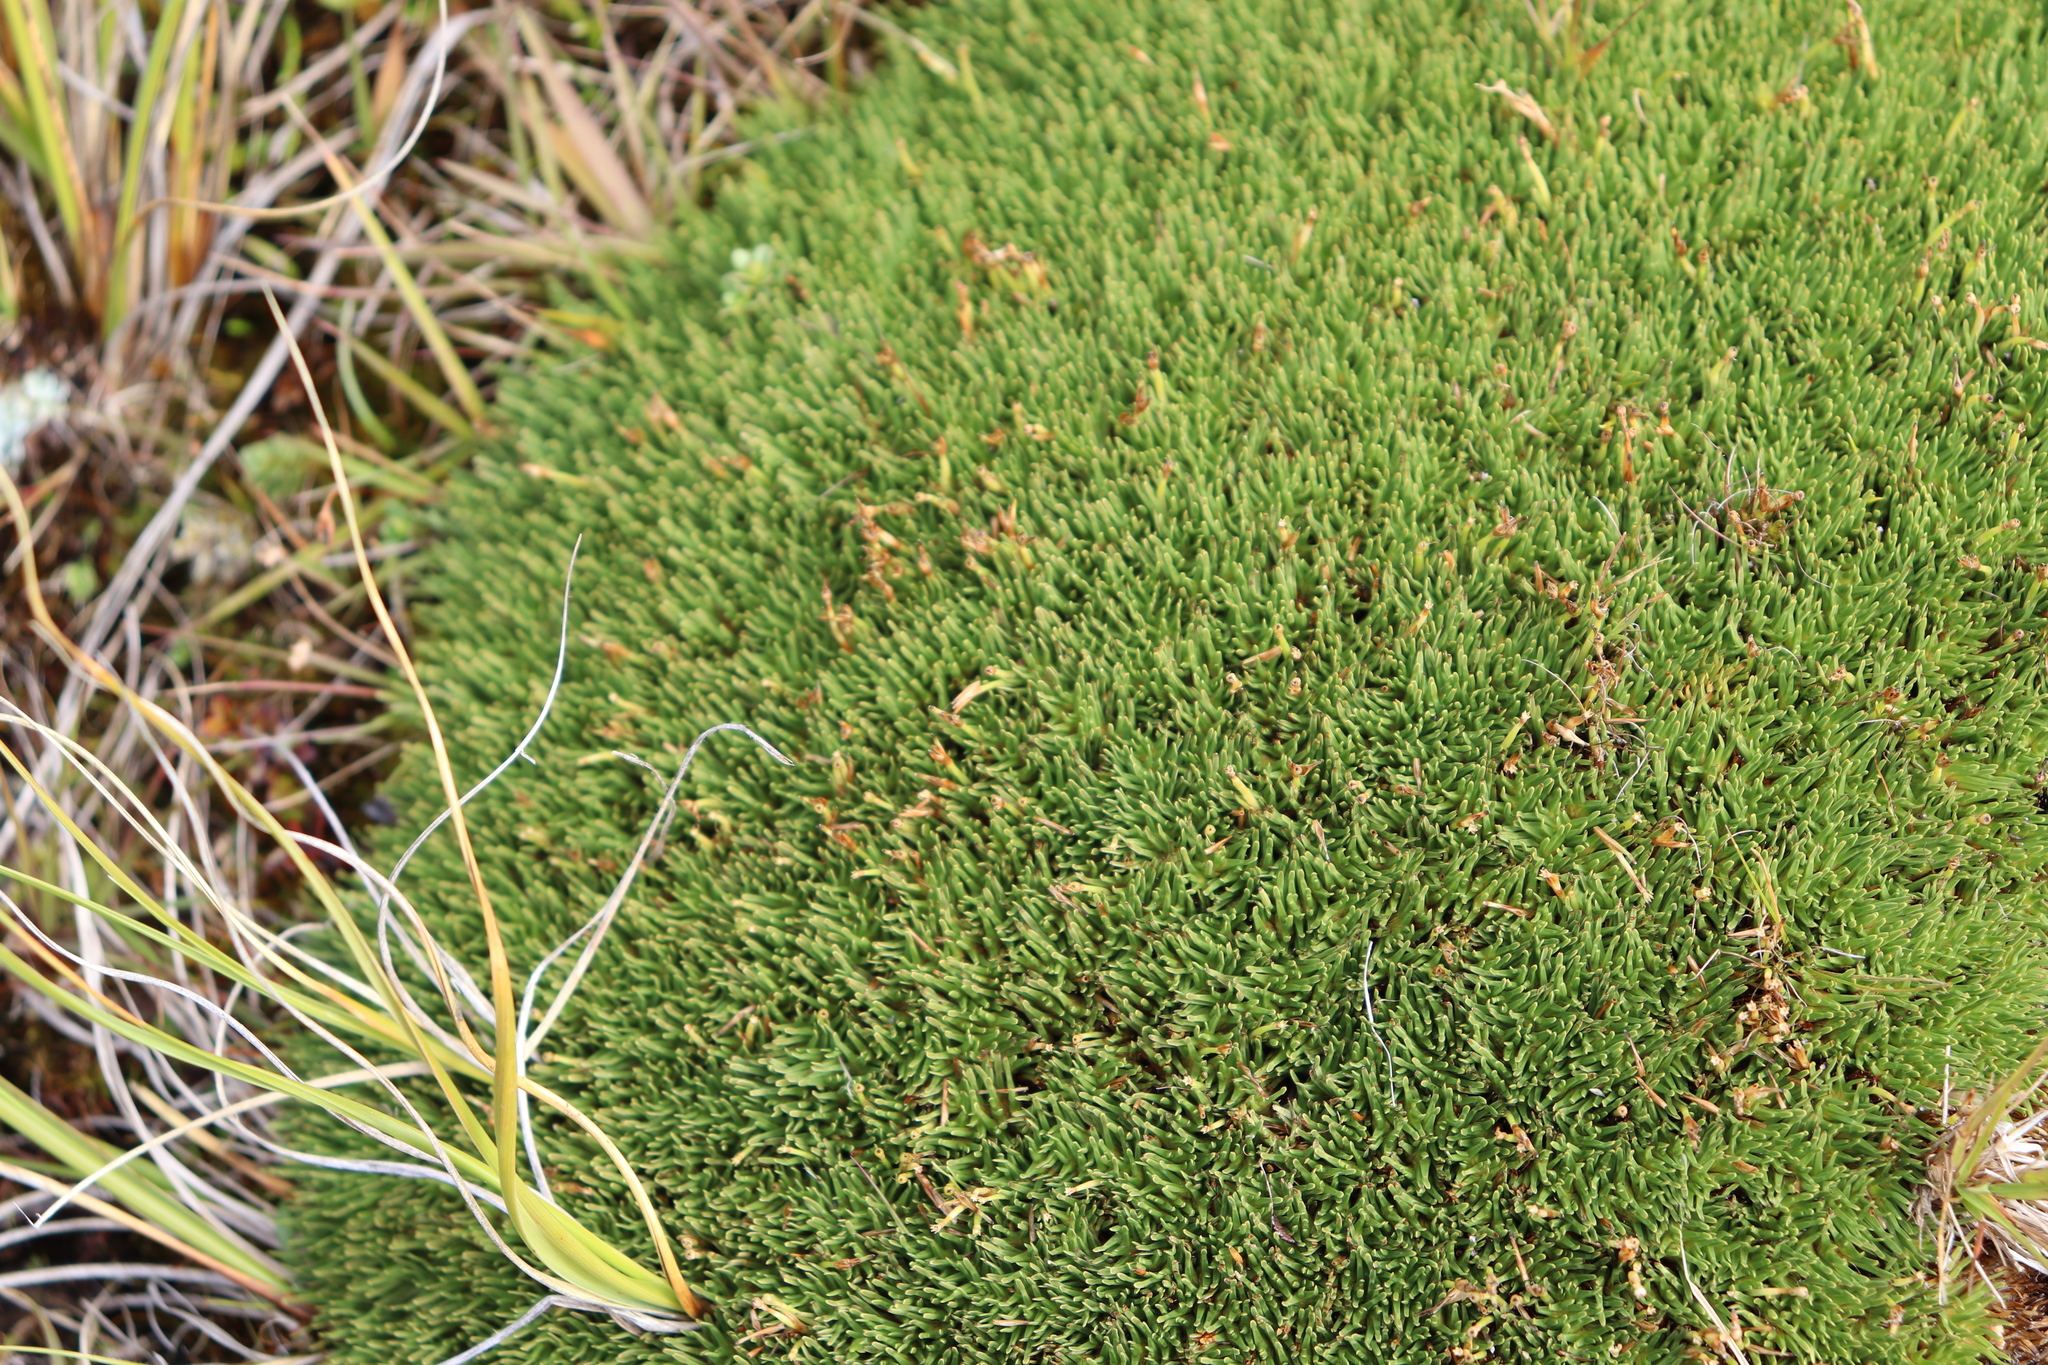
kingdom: Plantae
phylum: Tracheophyta
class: Liliopsida
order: Poales
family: Cyperaceae
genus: Oreobolus
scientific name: Oreobolus pectinatus
